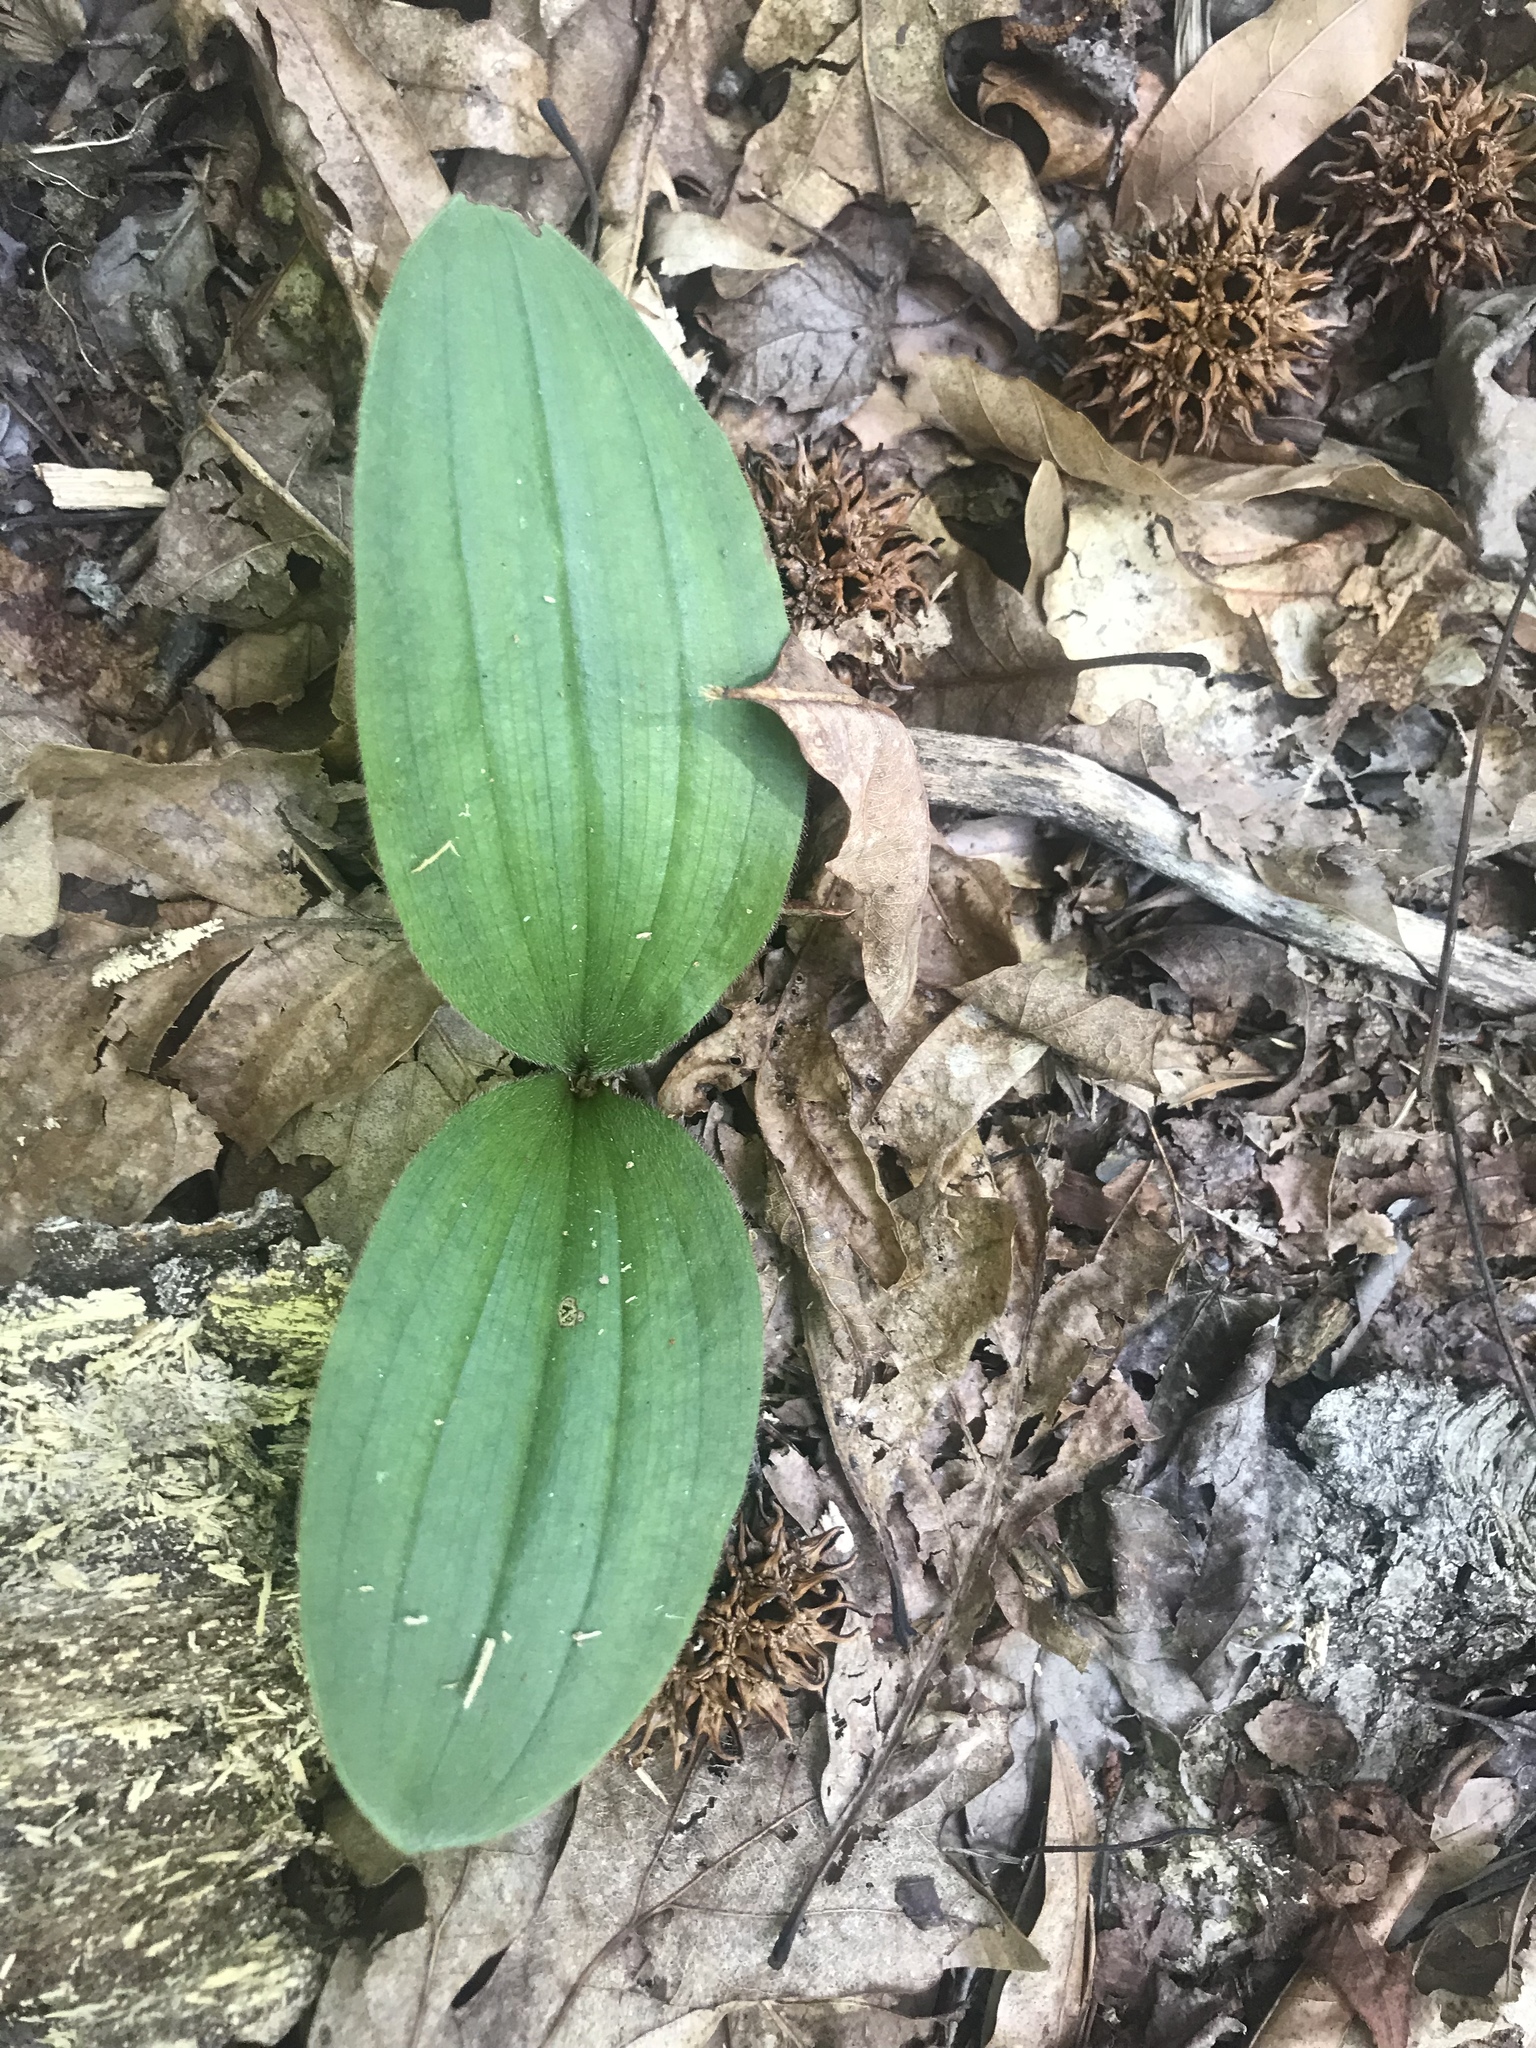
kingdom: Plantae
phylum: Tracheophyta
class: Liliopsida
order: Asparagales
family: Orchidaceae
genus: Cypripedium
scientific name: Cypripedium acaule
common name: Pink lady's-slipper
